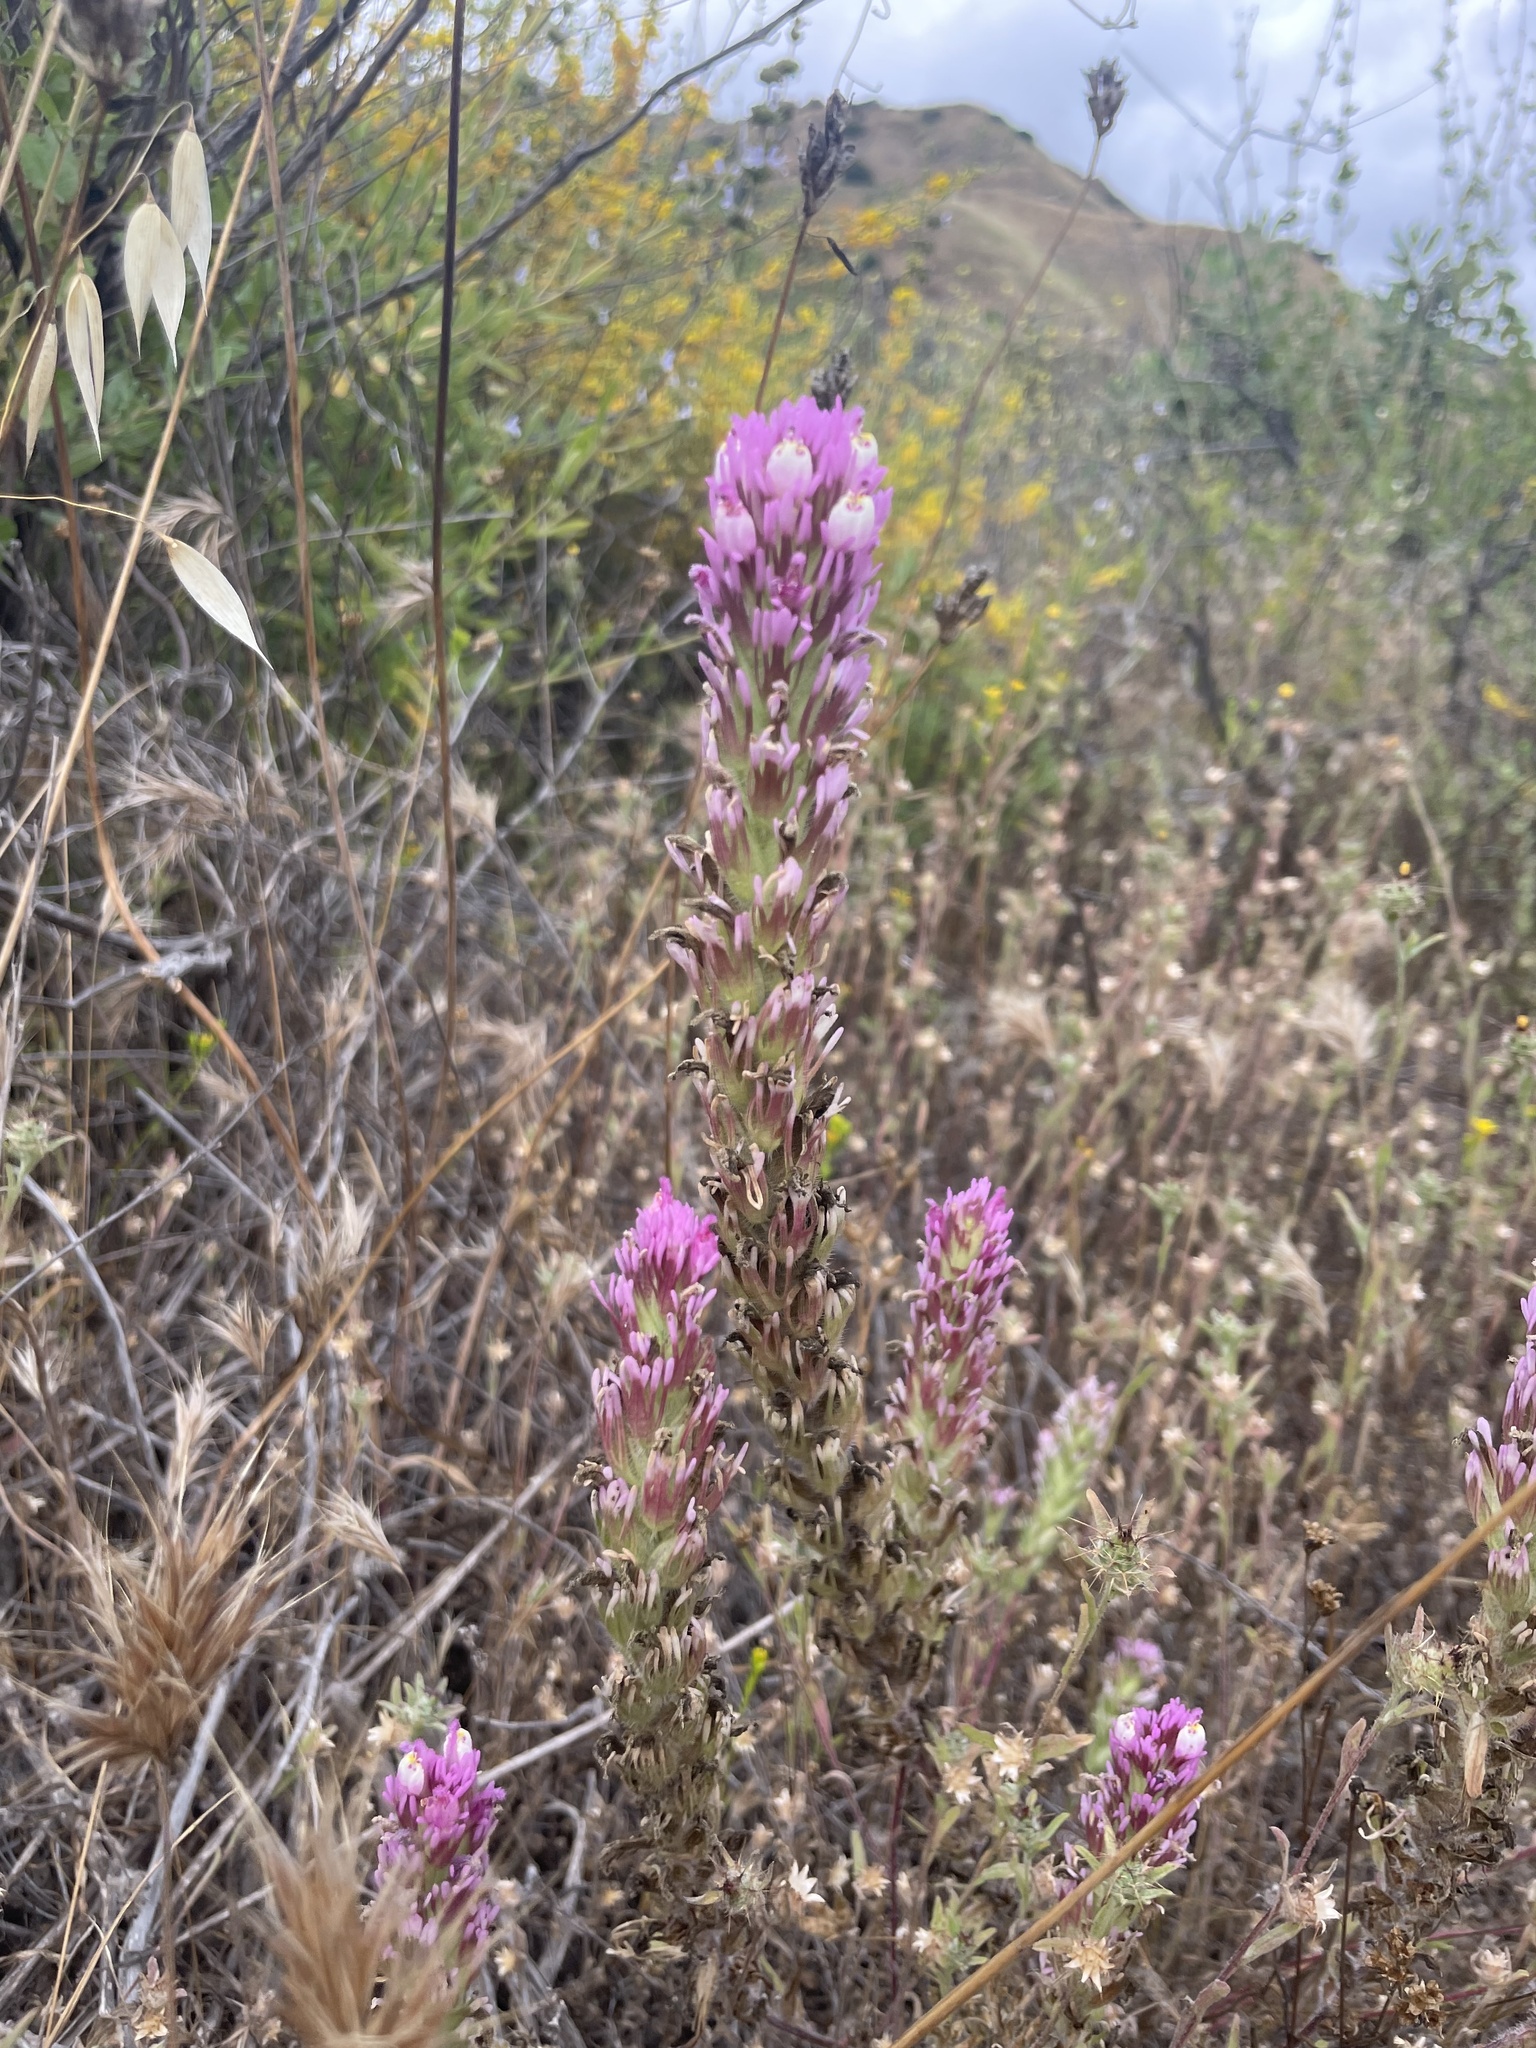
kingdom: Plantae
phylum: Tracheophyta
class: Magnoliopsida
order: Lamiales
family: Orobanchaceae
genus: Castilleja
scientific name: Castilleja exserta
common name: Purple owl-clover
